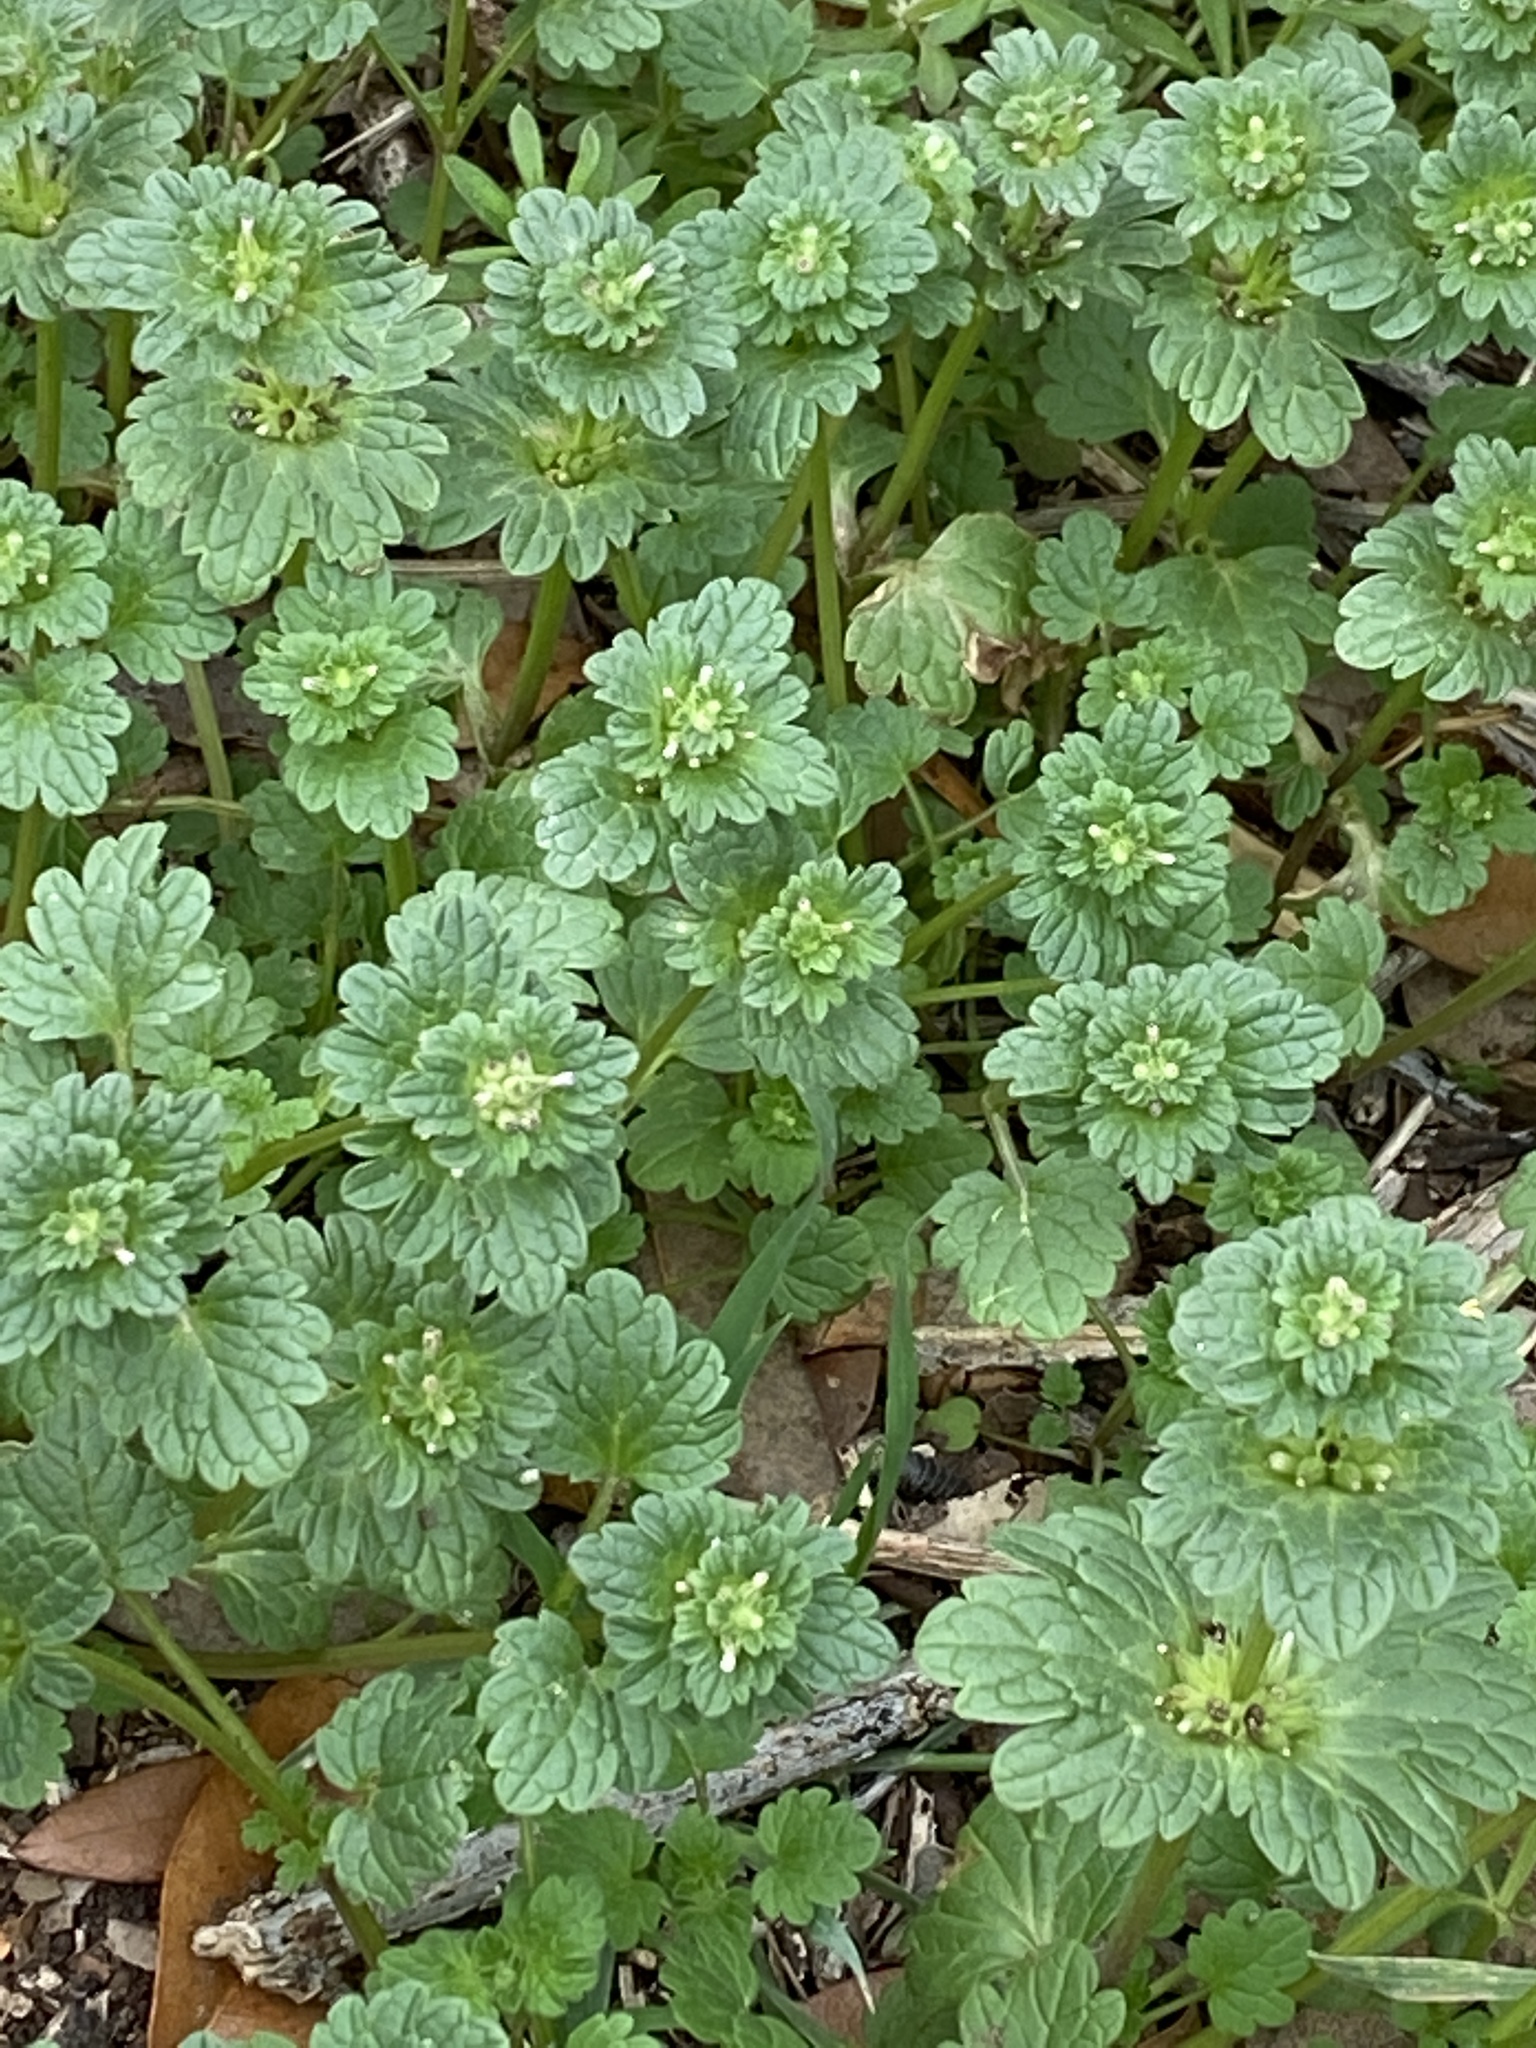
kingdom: Plantae
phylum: Tracheophyta
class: Magnoliopsida
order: Lamiales
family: Lamiaceae
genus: Lamium
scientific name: Lamium amplexicaule
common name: Henbit dead-nettle
